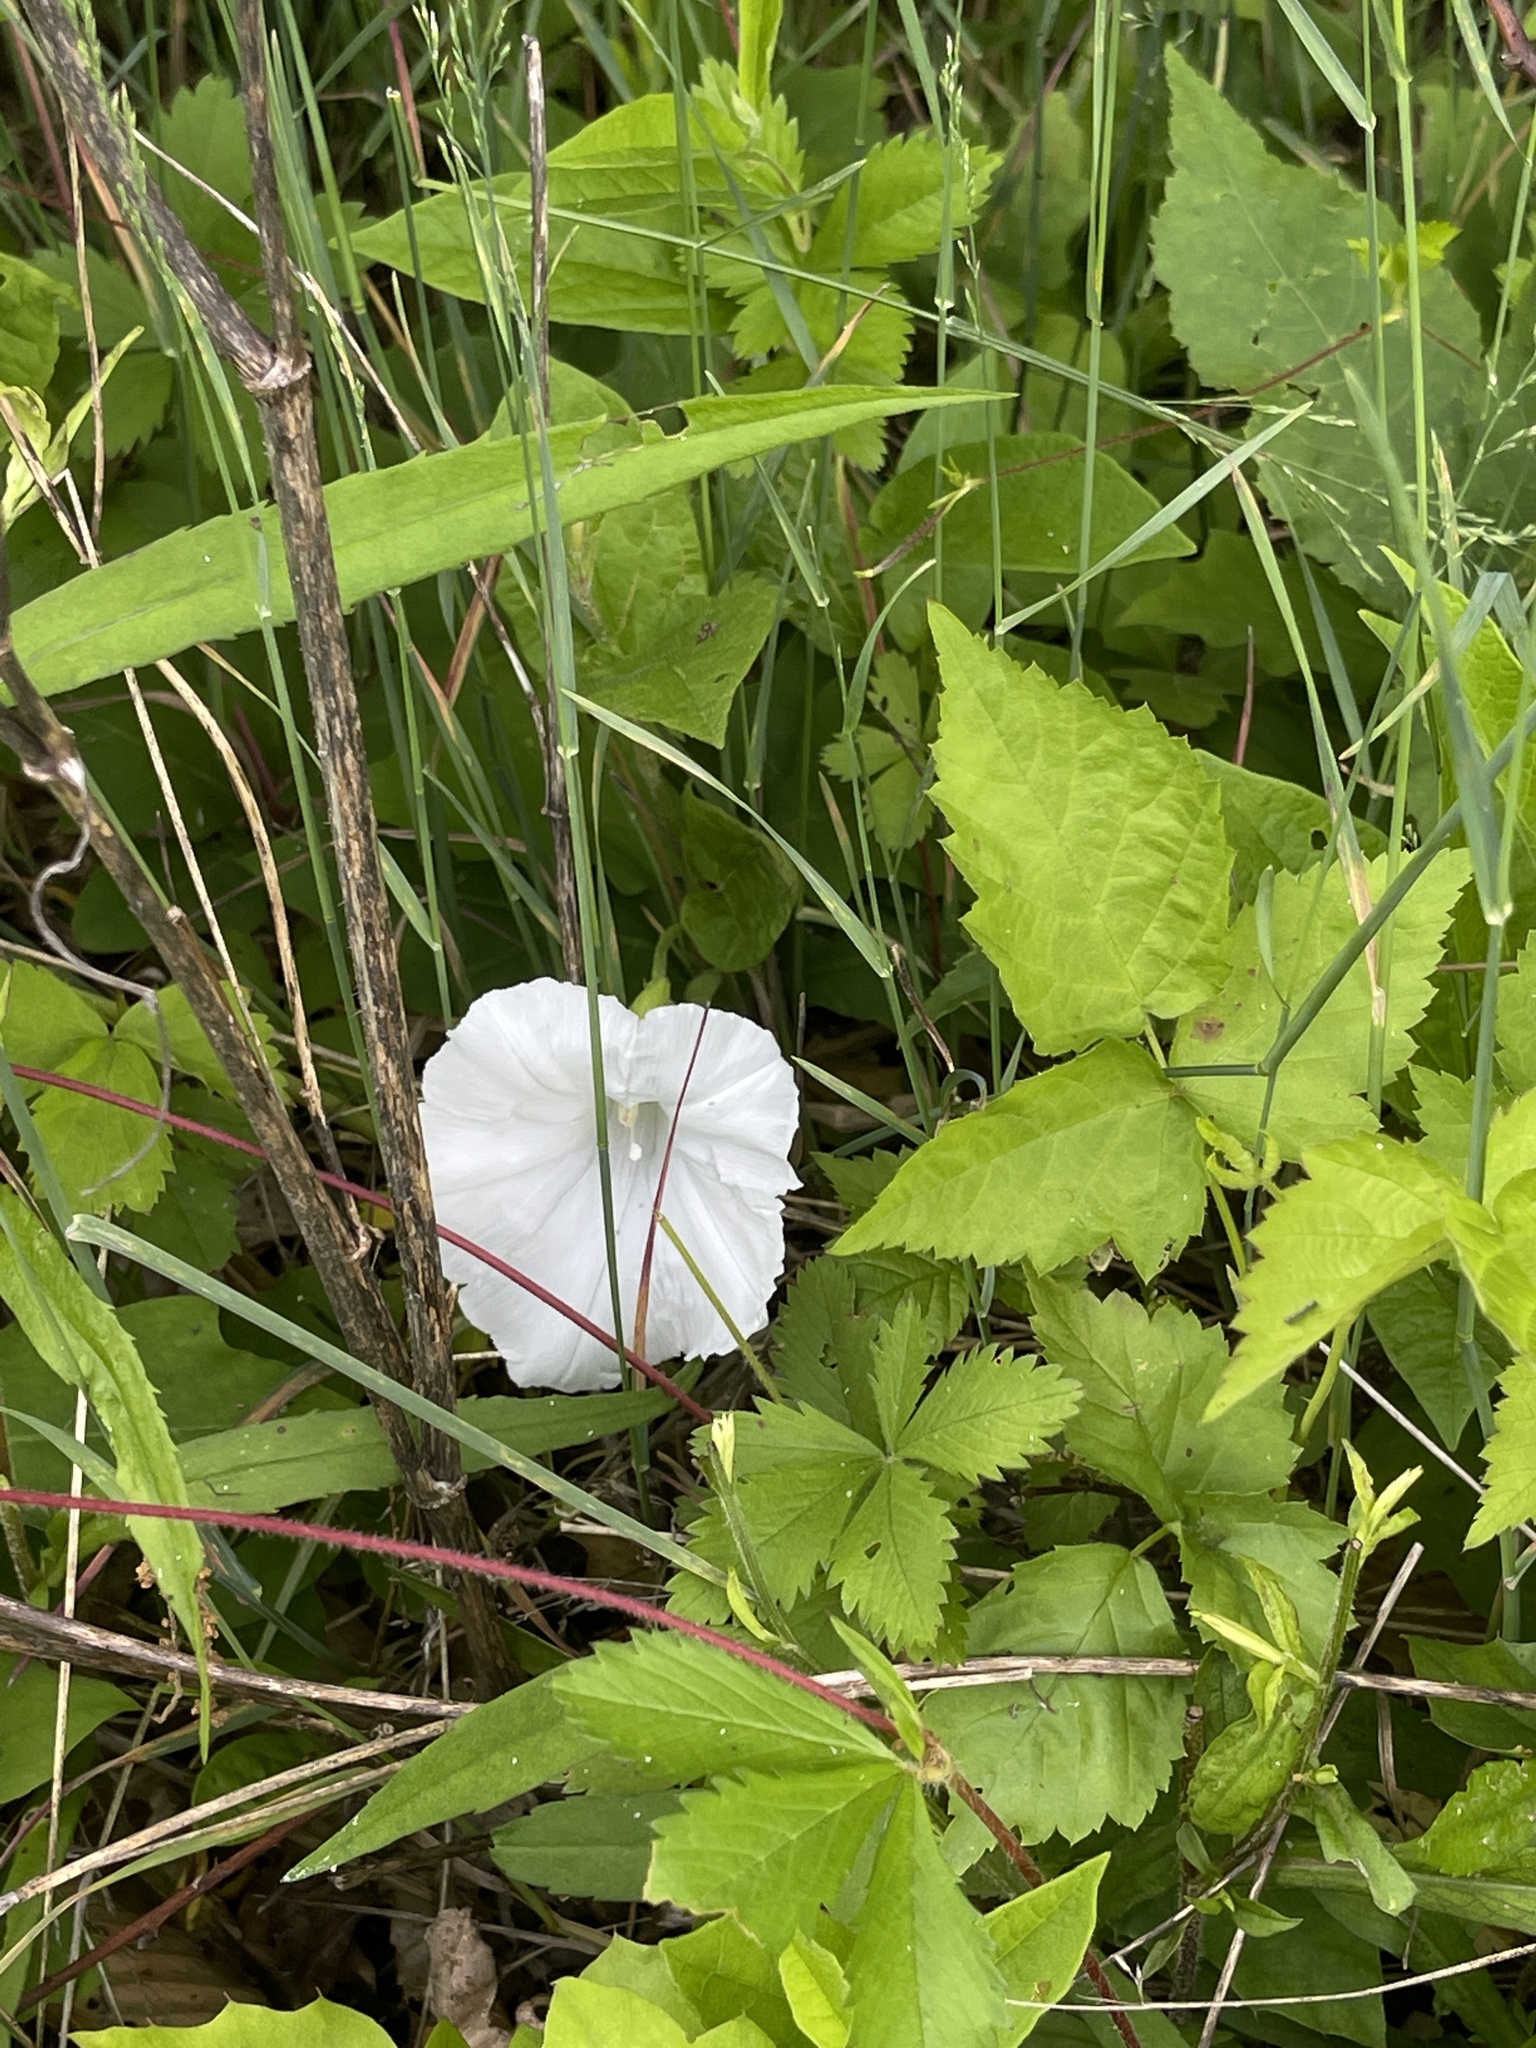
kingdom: Plantae
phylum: Tracheophyta
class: Magnoliopsida
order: Solanales
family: Convolvulaceae
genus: Calystegia
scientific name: Calystegia spithamaea
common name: Dwarf bindweed
